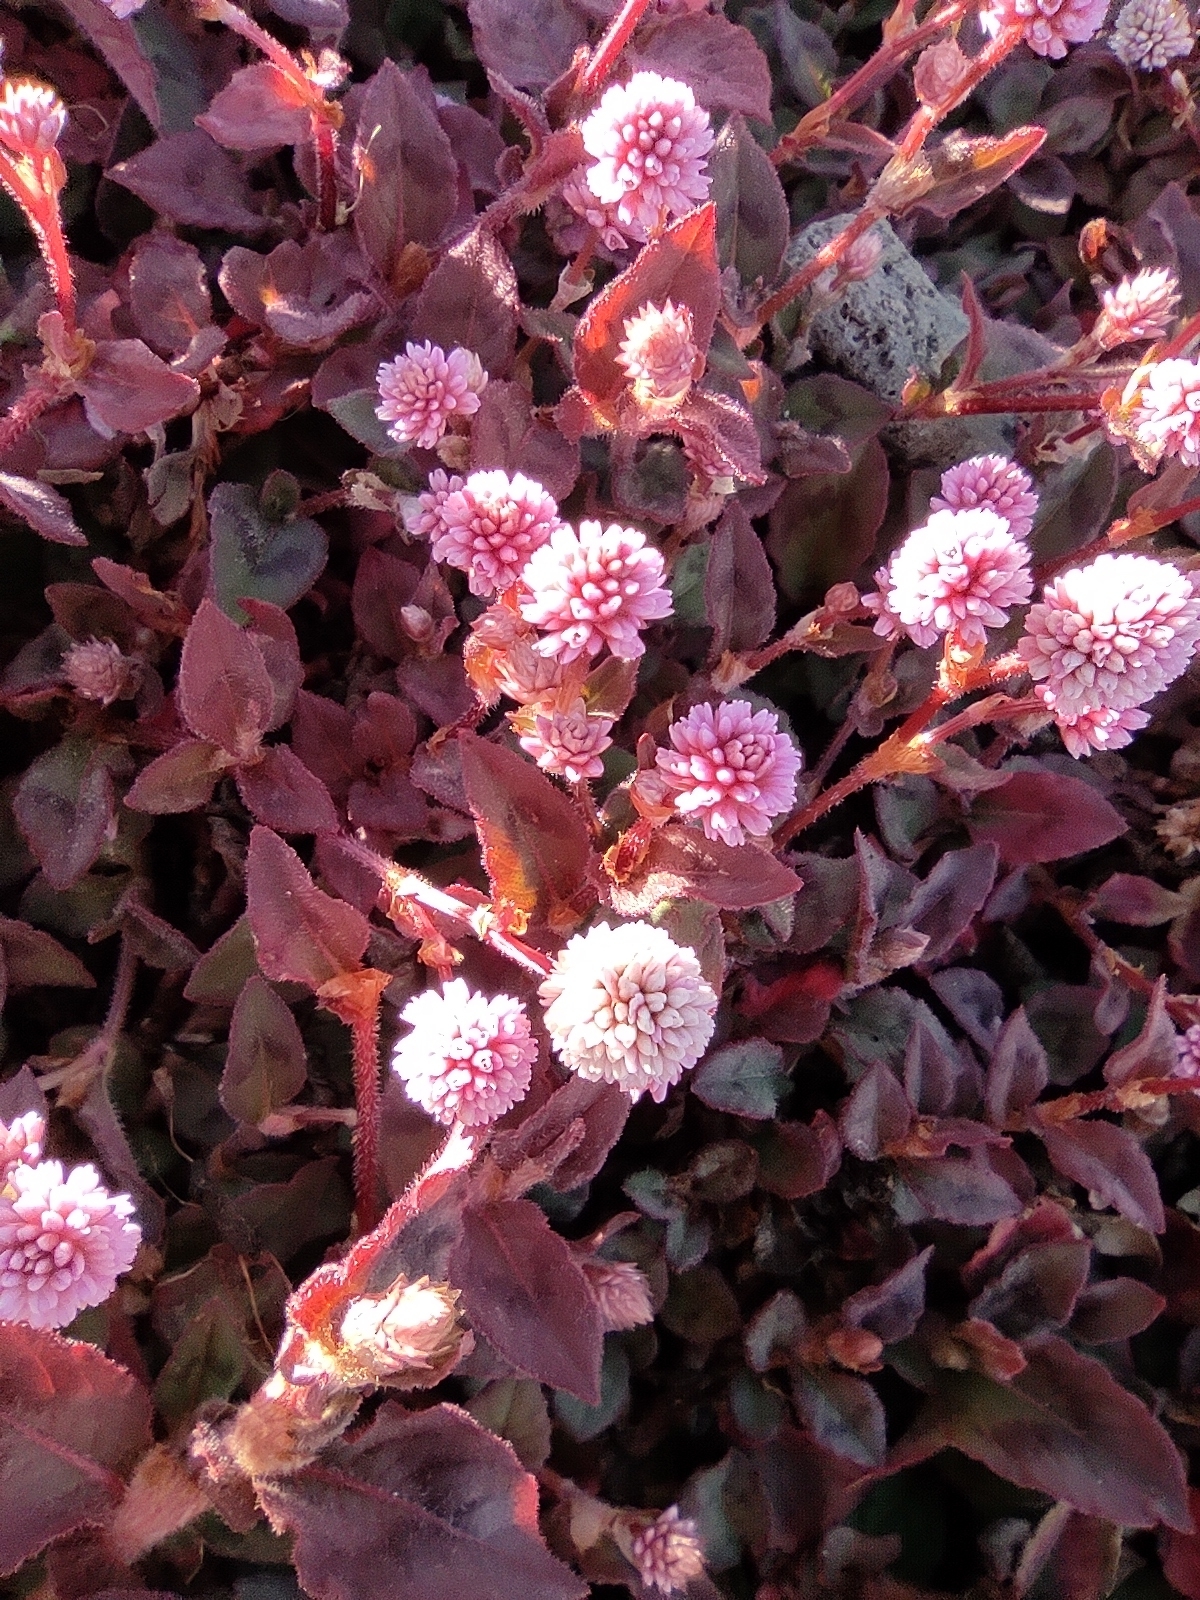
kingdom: Plantae
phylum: Tracheophyta
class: Magnoliopsida
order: Caryophyllales
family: Polygonaceae
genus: Persicaria
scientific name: Persicaria capitata
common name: Pinkhead smartweed
